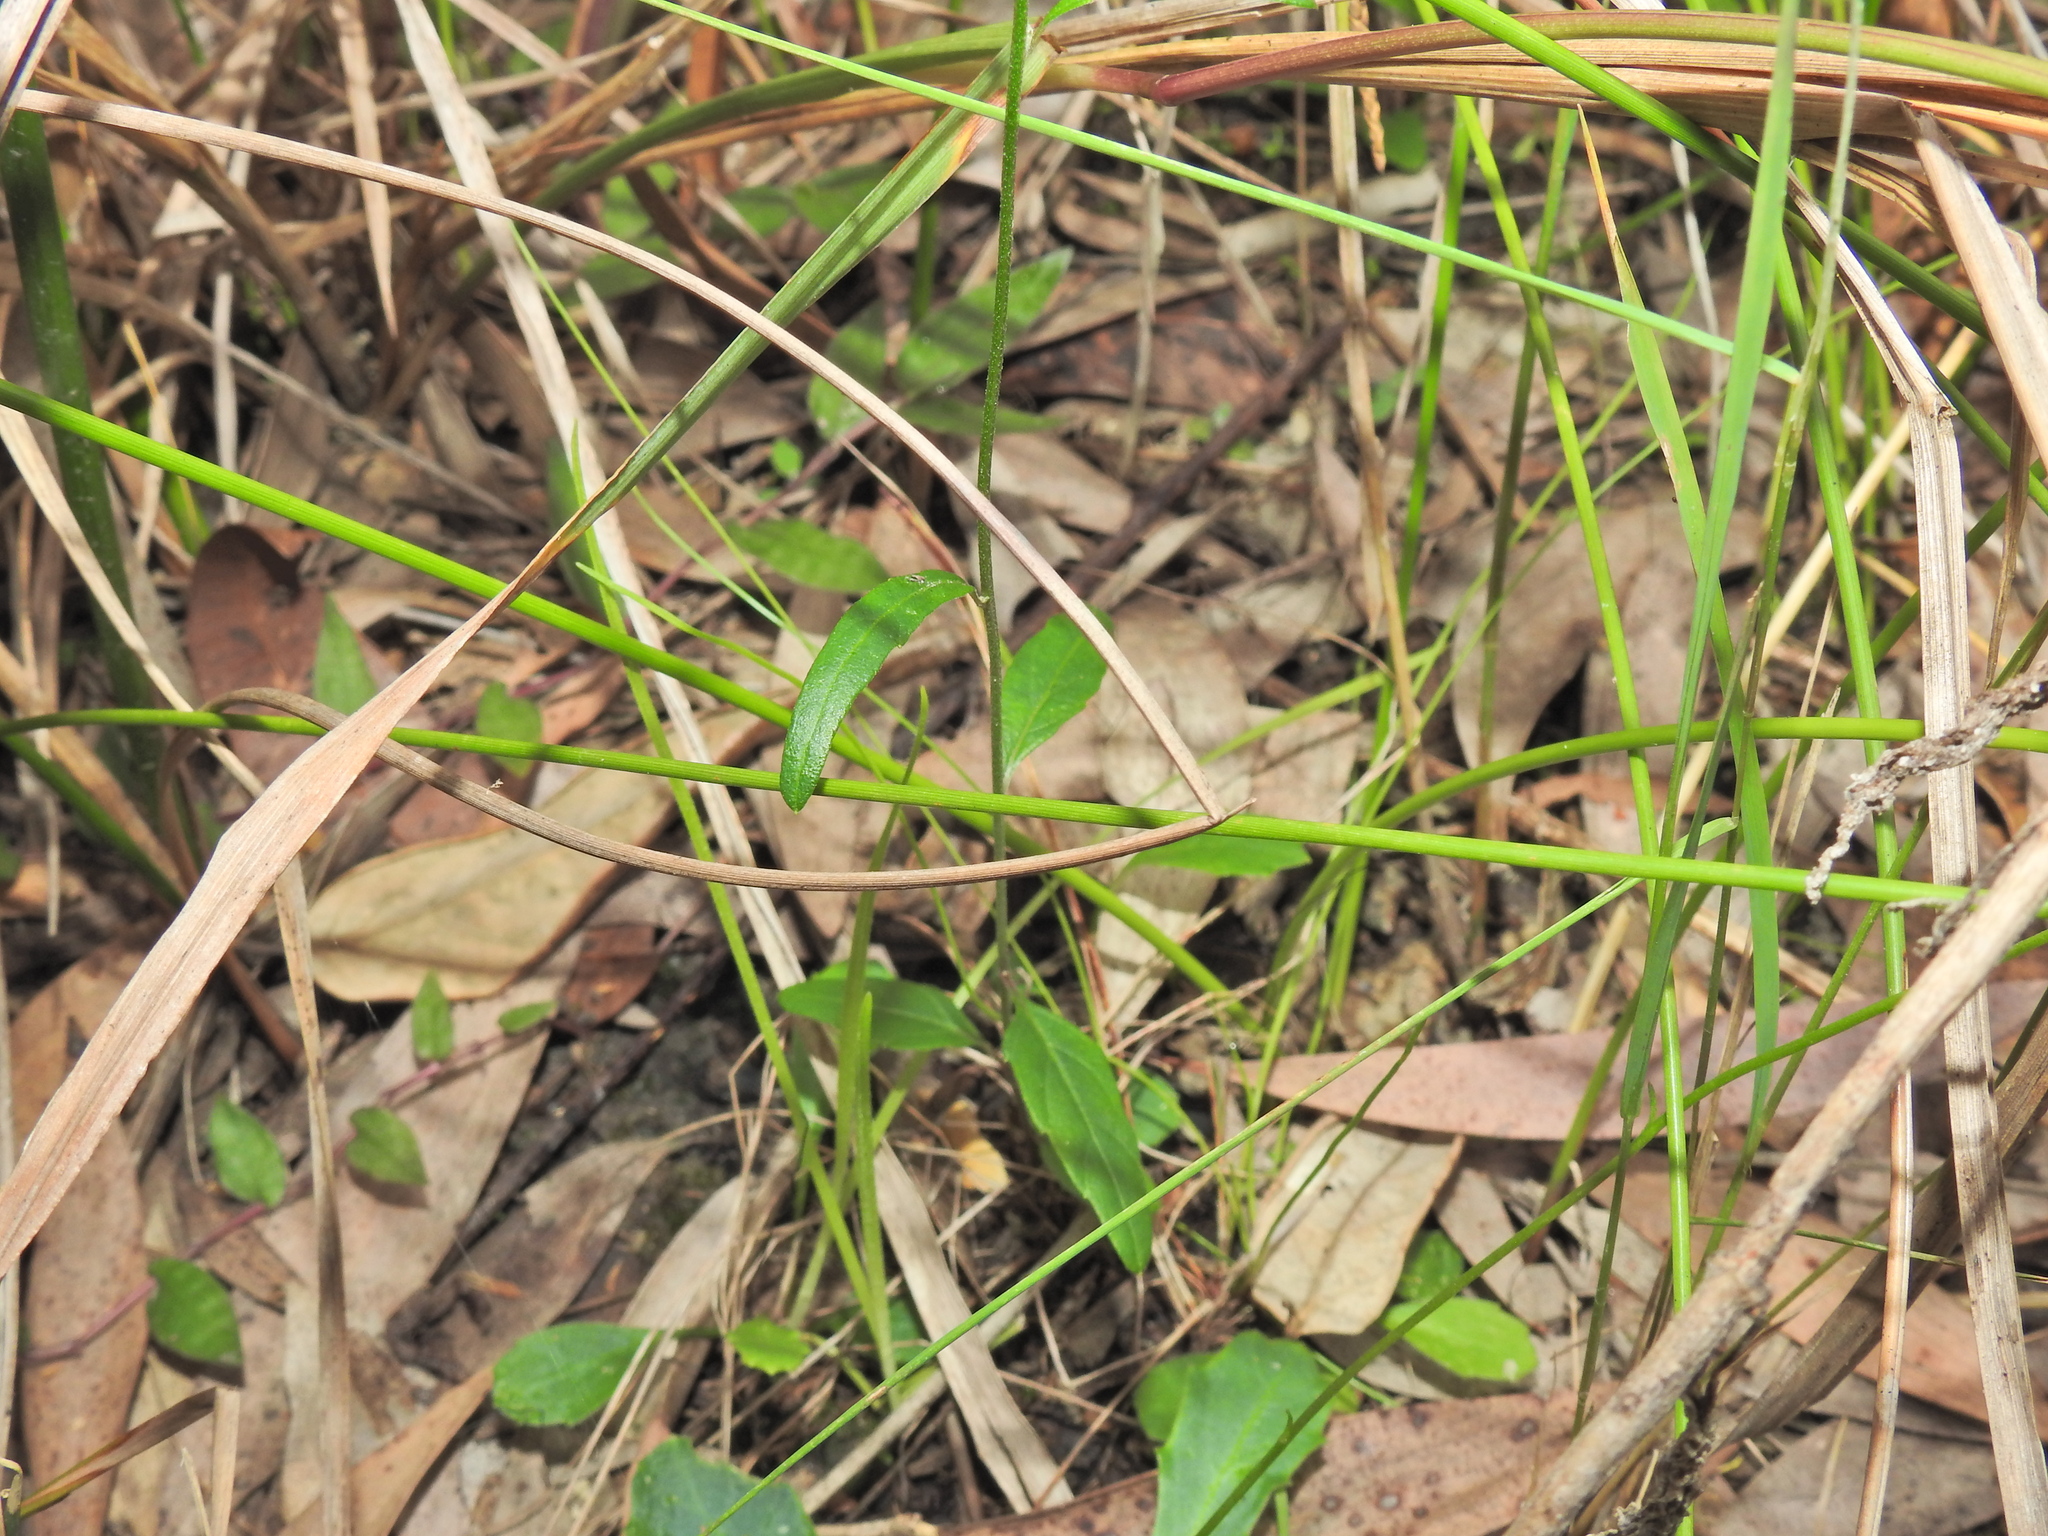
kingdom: Plantae
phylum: Tracheophyta
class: Magnoliopsida
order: Asterales
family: Asteraceae
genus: Cyanthillium
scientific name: Cyanthillium cinereum
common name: Little ironweed
